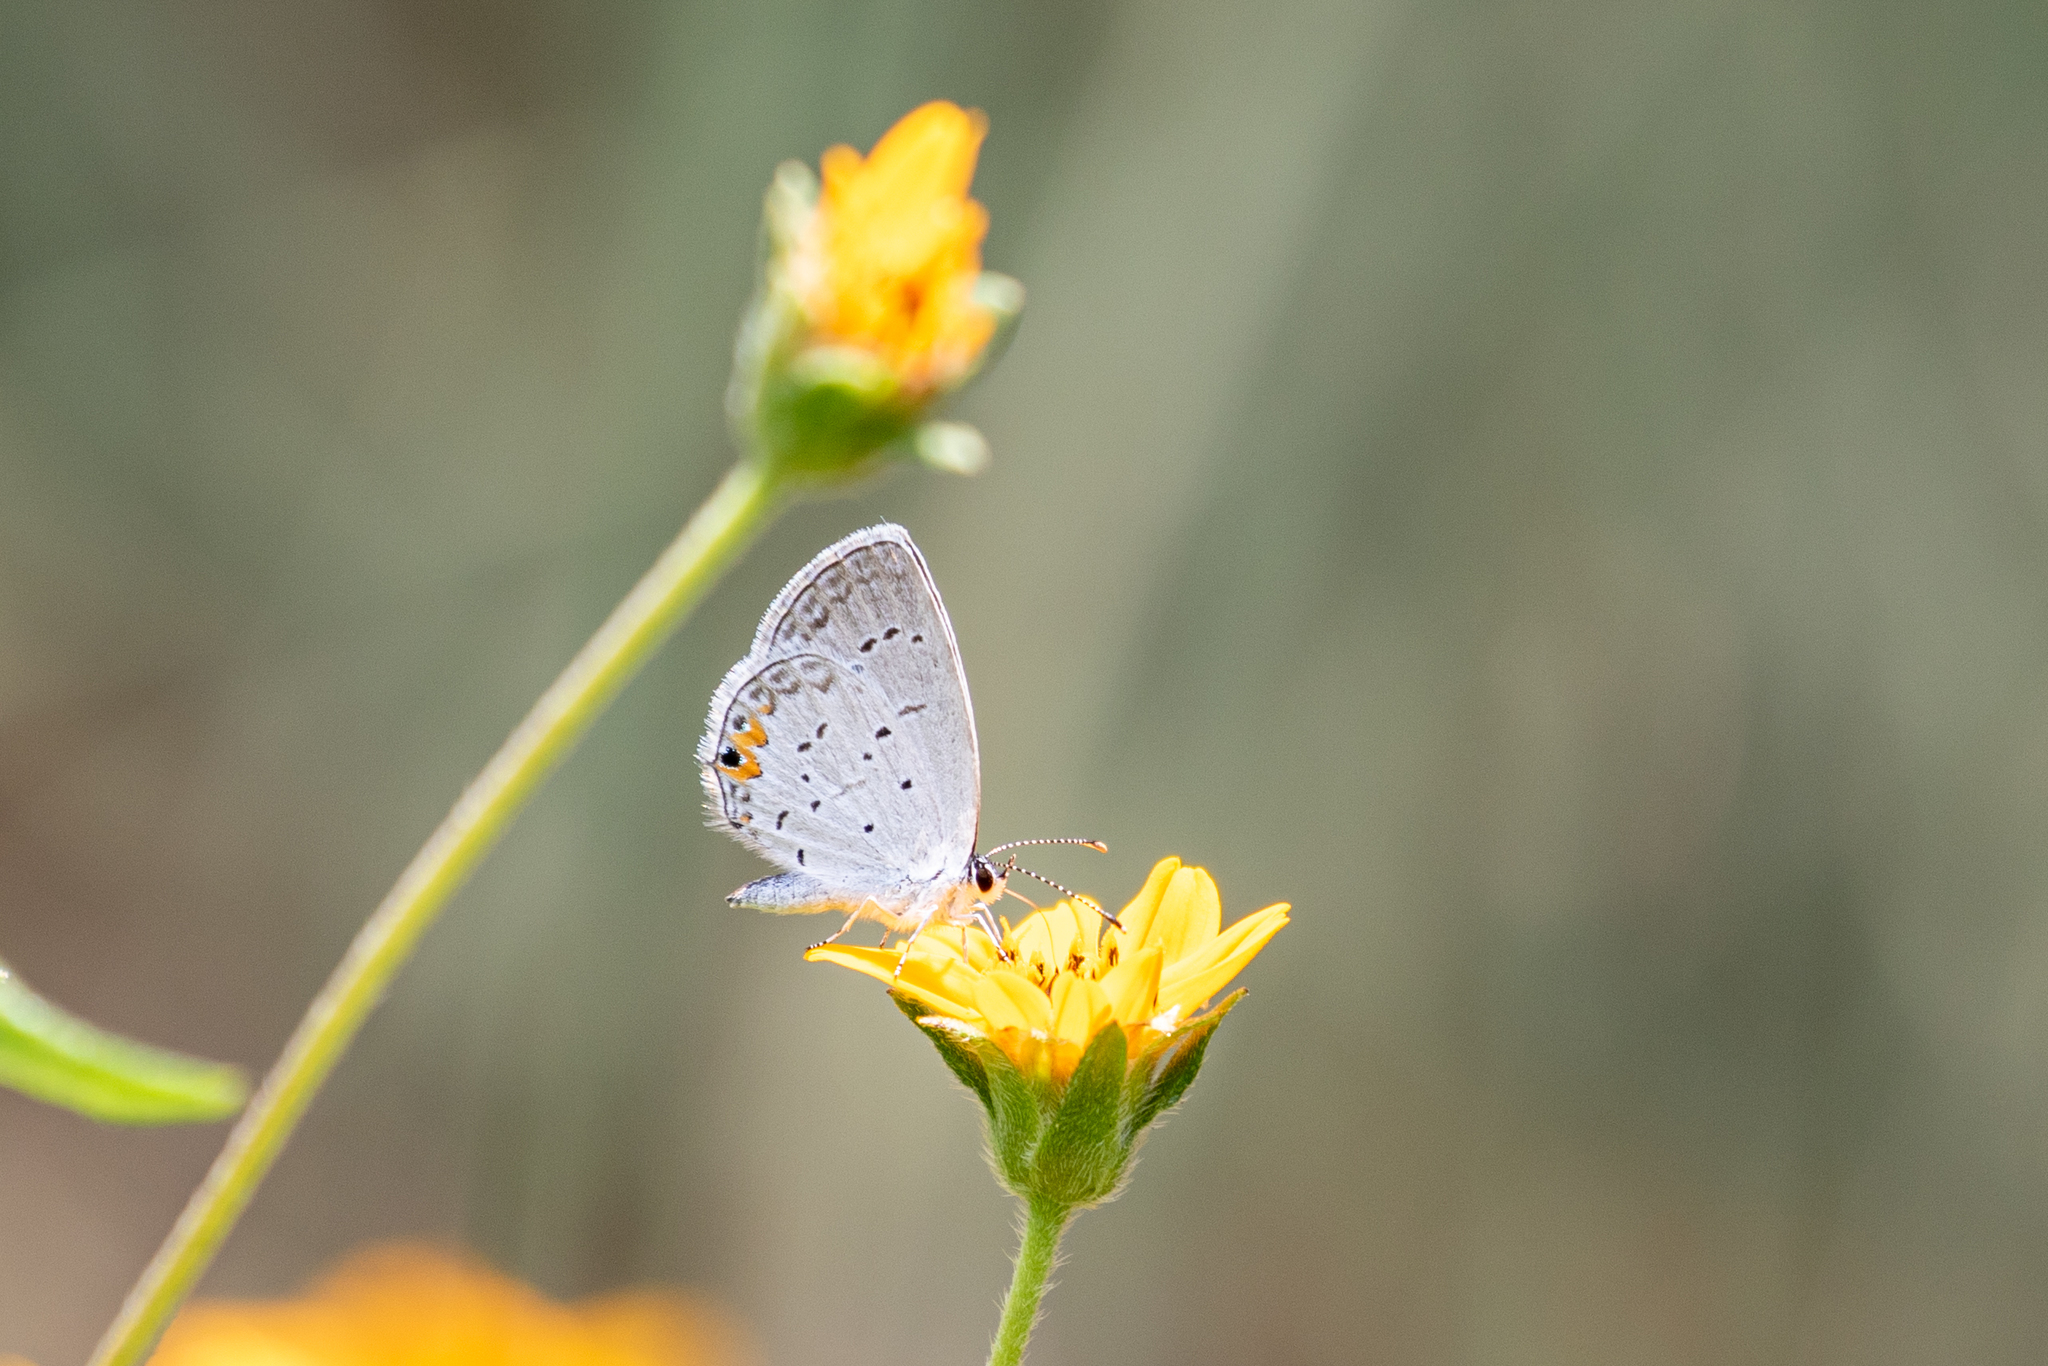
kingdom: Animalia
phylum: Arthropoda
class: Insecta
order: Lepidoptera
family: Lycaenidae
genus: Elkalyce
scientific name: Elkalyce comyntas
